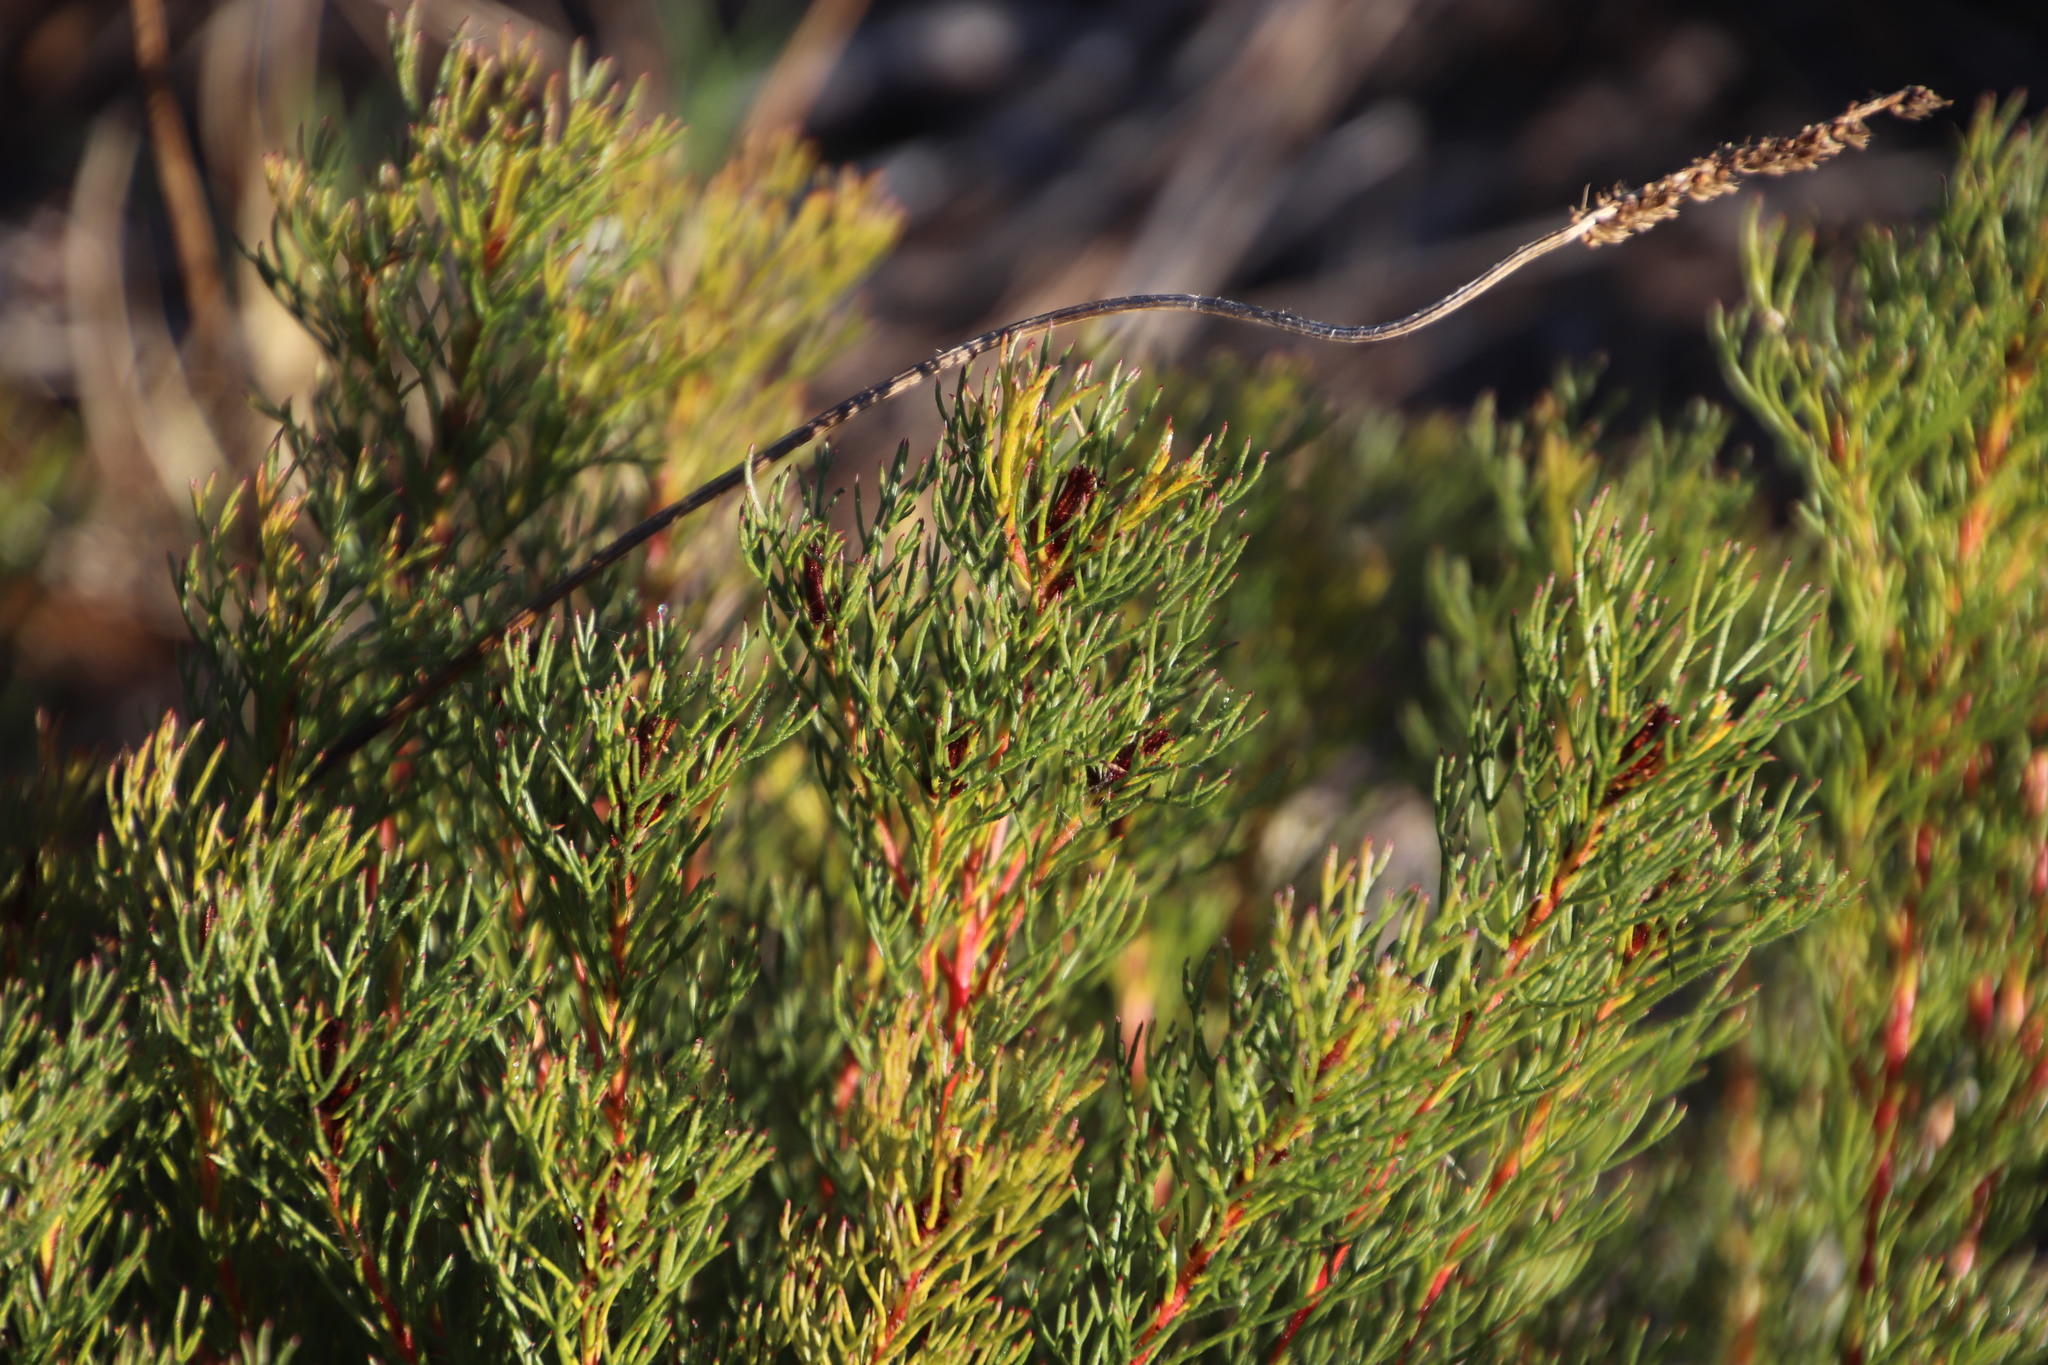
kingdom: Plantae
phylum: Tracheophyta
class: Magnoliopsida
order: Proteales
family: Proteaceae
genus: Serruria
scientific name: Serruria aemula
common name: Strawberry spiderhead
